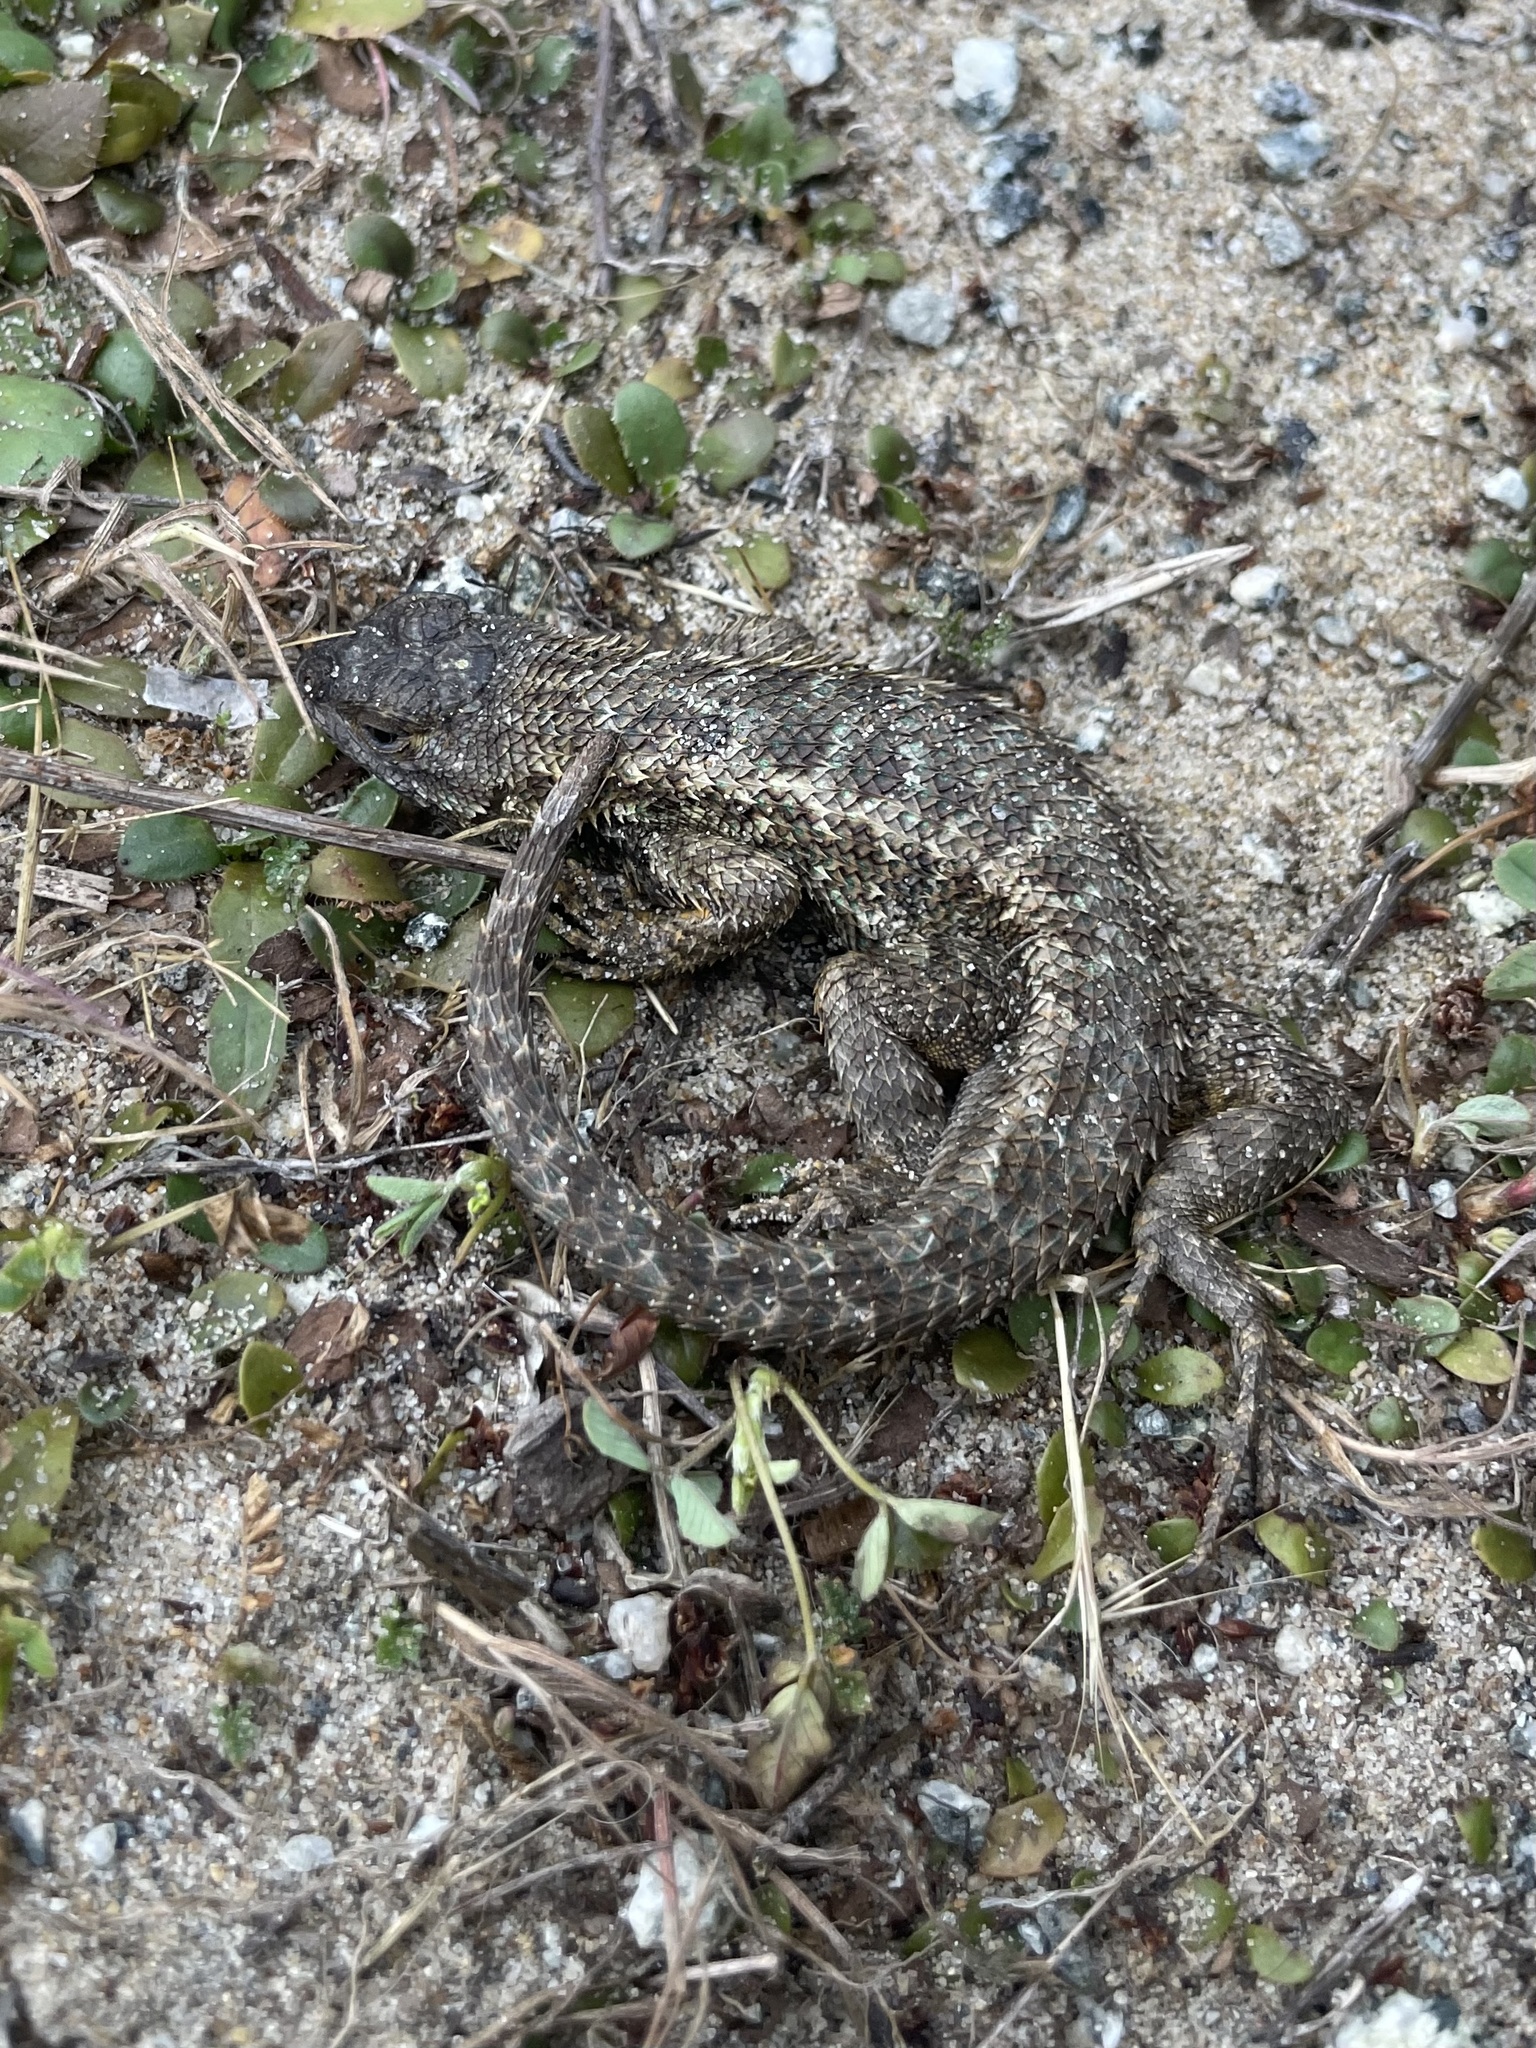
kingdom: Animalia
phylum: Chordata
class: Squamata
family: Phrynosomatidae
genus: Sceloporus
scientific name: Sceloporus occidentalis
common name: Western fence lizard
